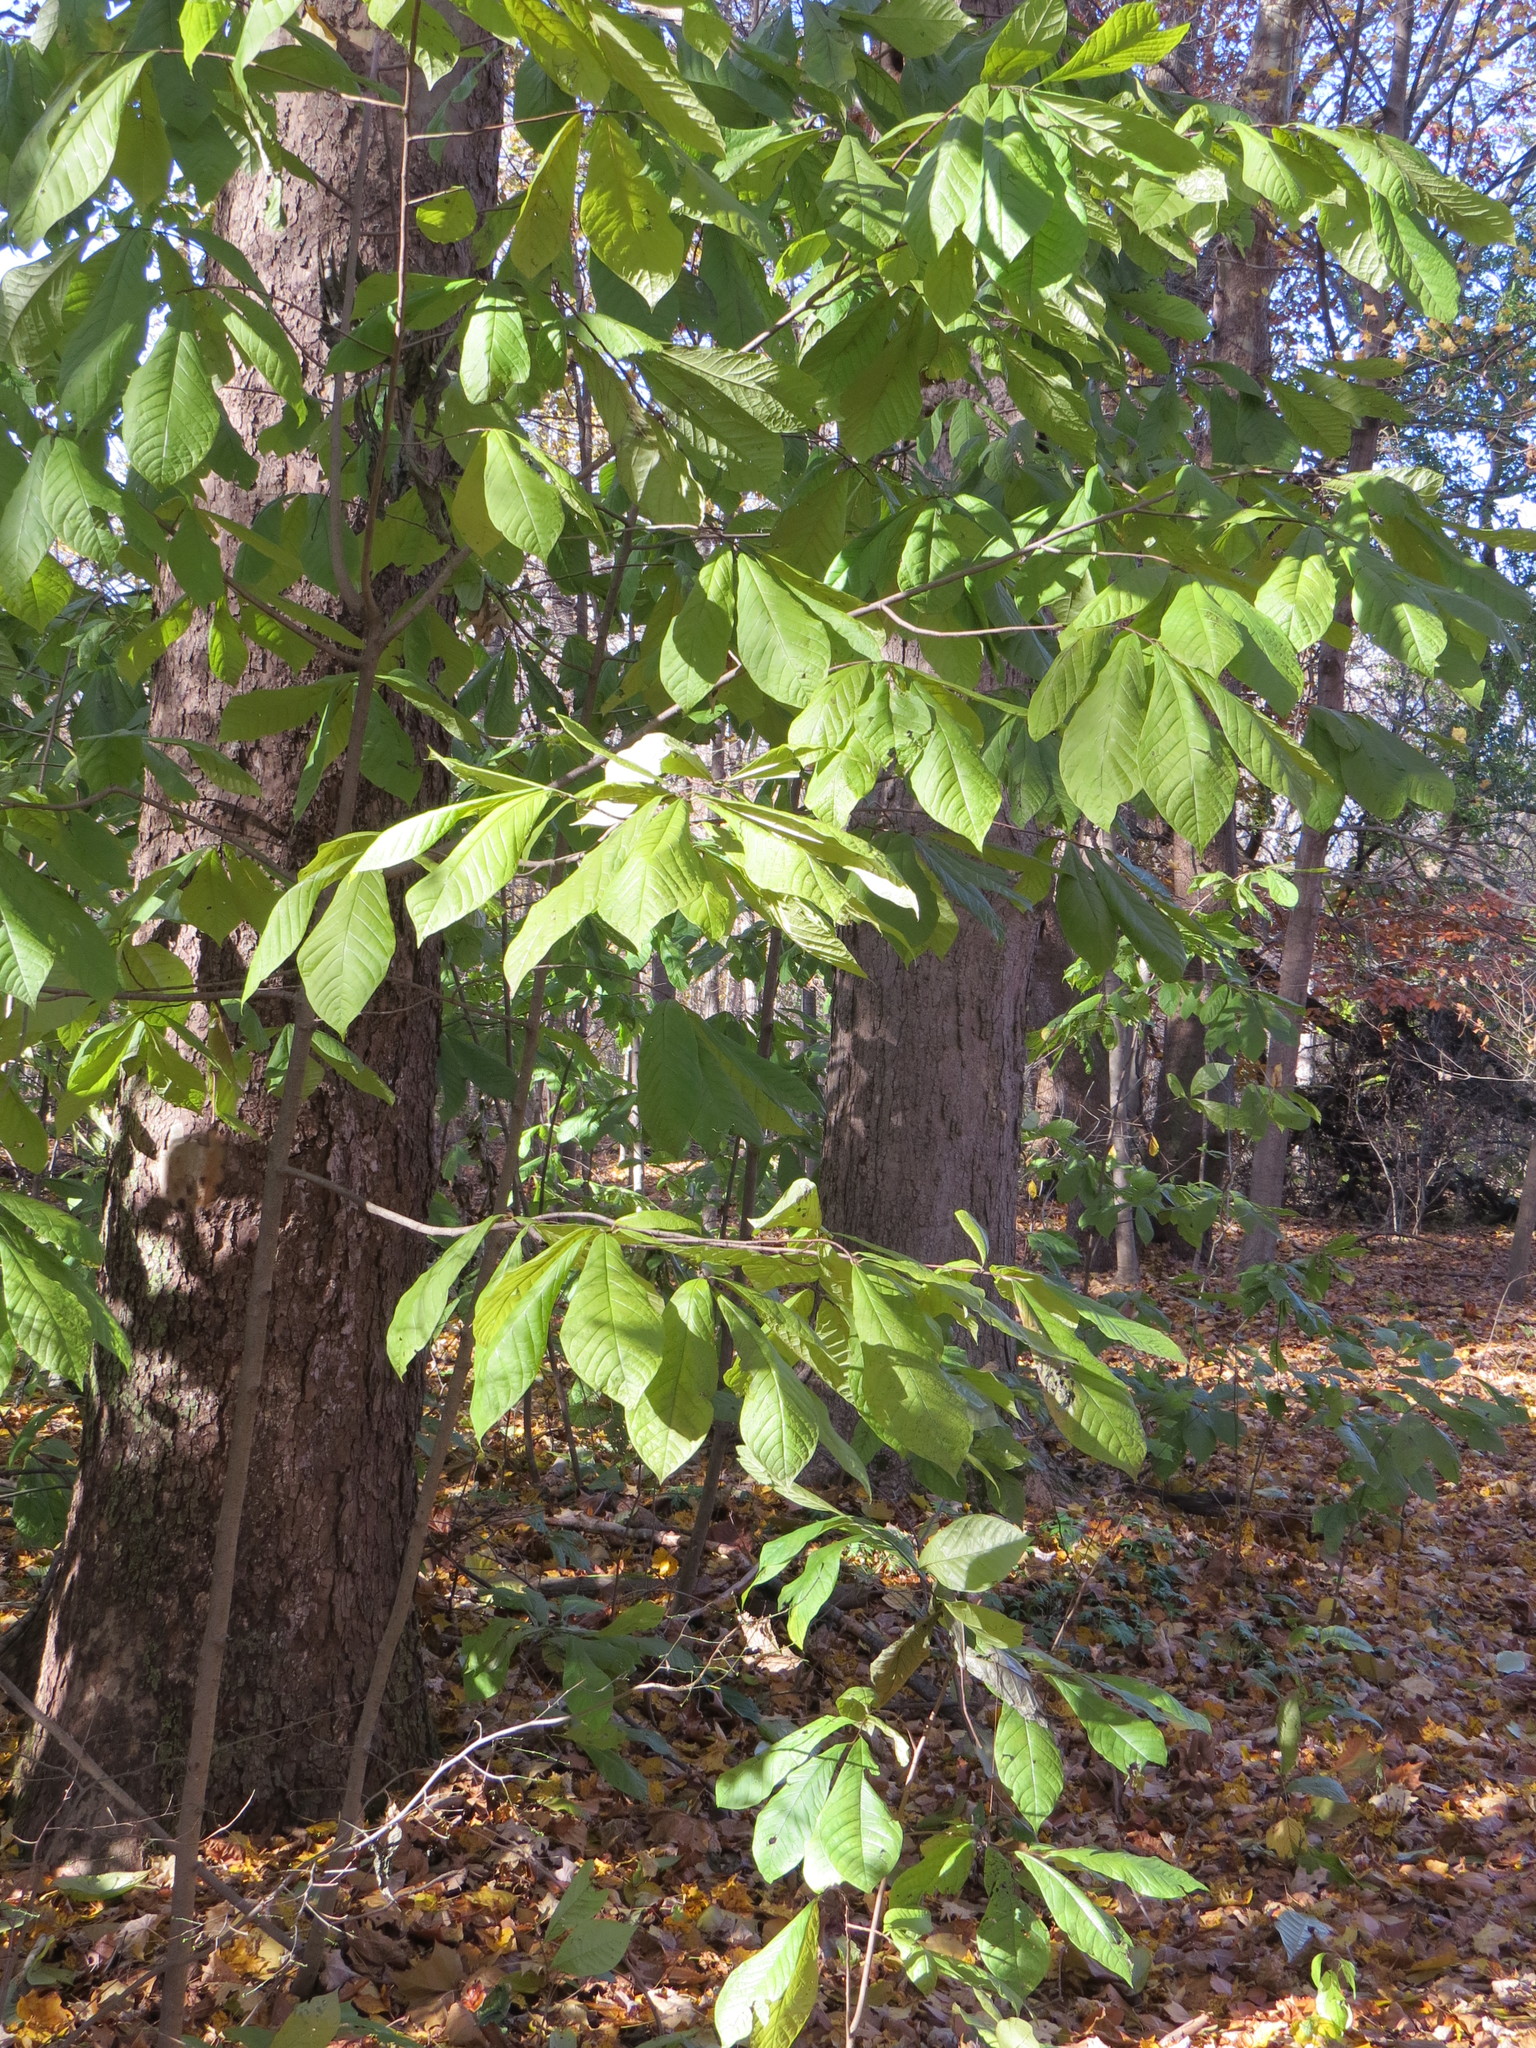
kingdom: Plantae
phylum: Tracheophyta
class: Magnoliopsida
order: Magnoliales
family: Annonaceae
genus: Asimina
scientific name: Asimina triloba
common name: Dog-banana
